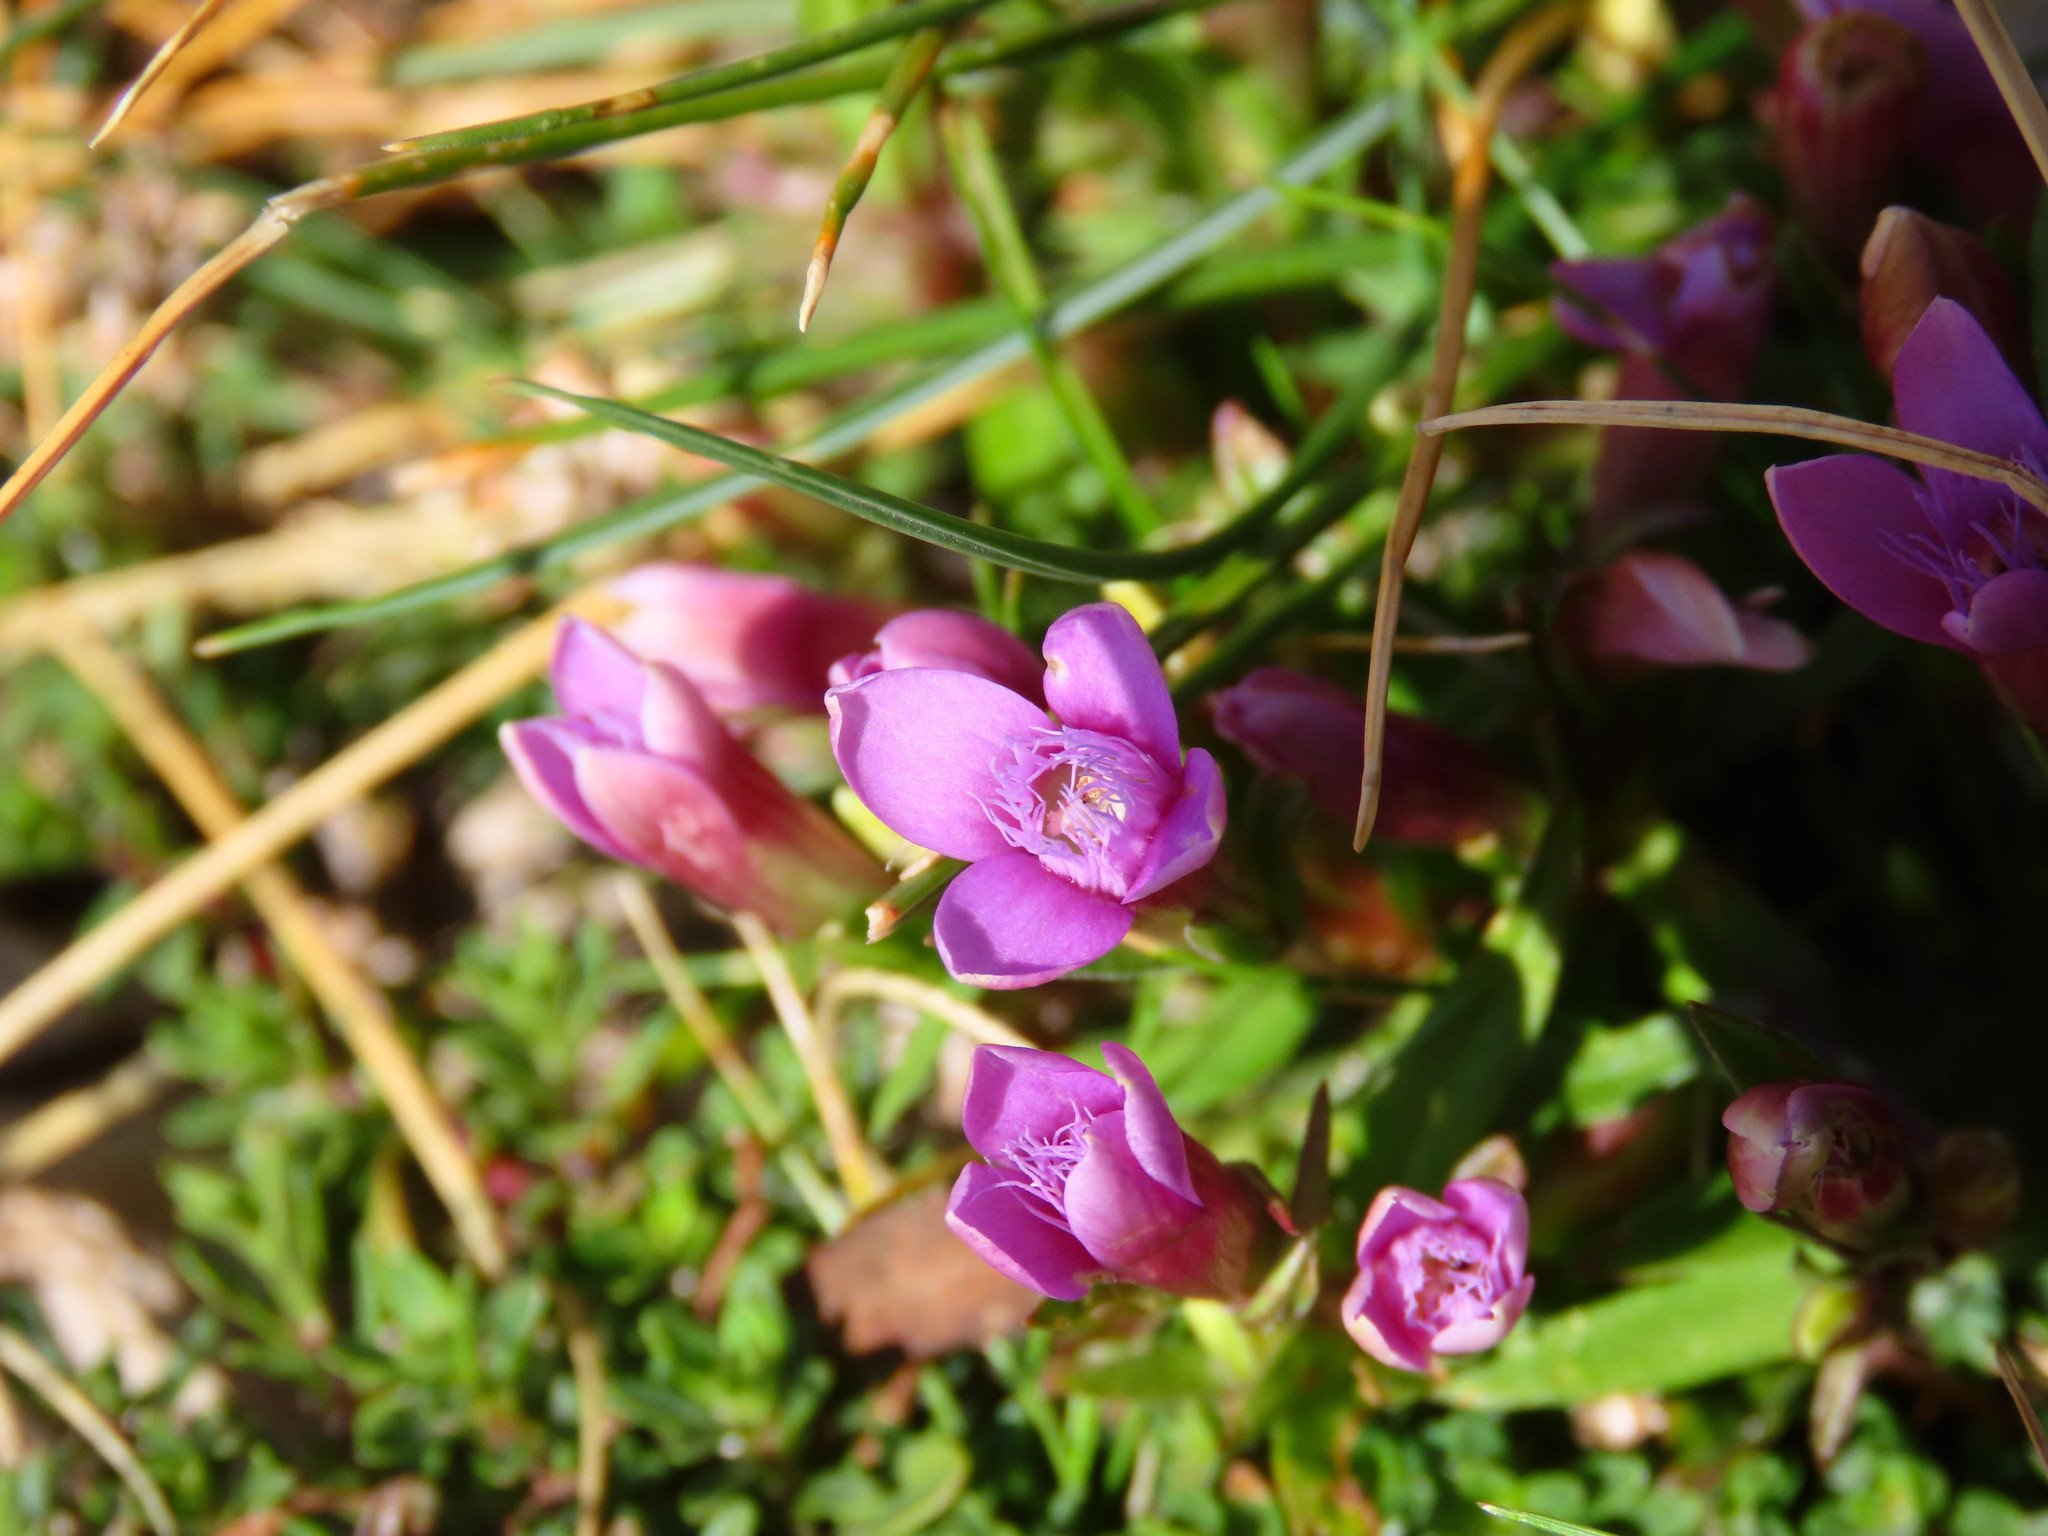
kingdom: Plantae
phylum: Tracheophyta
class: Magnoliopsida
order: Gentianales
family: Gentianaceae
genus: Gentianella
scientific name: Gentianella columnae
